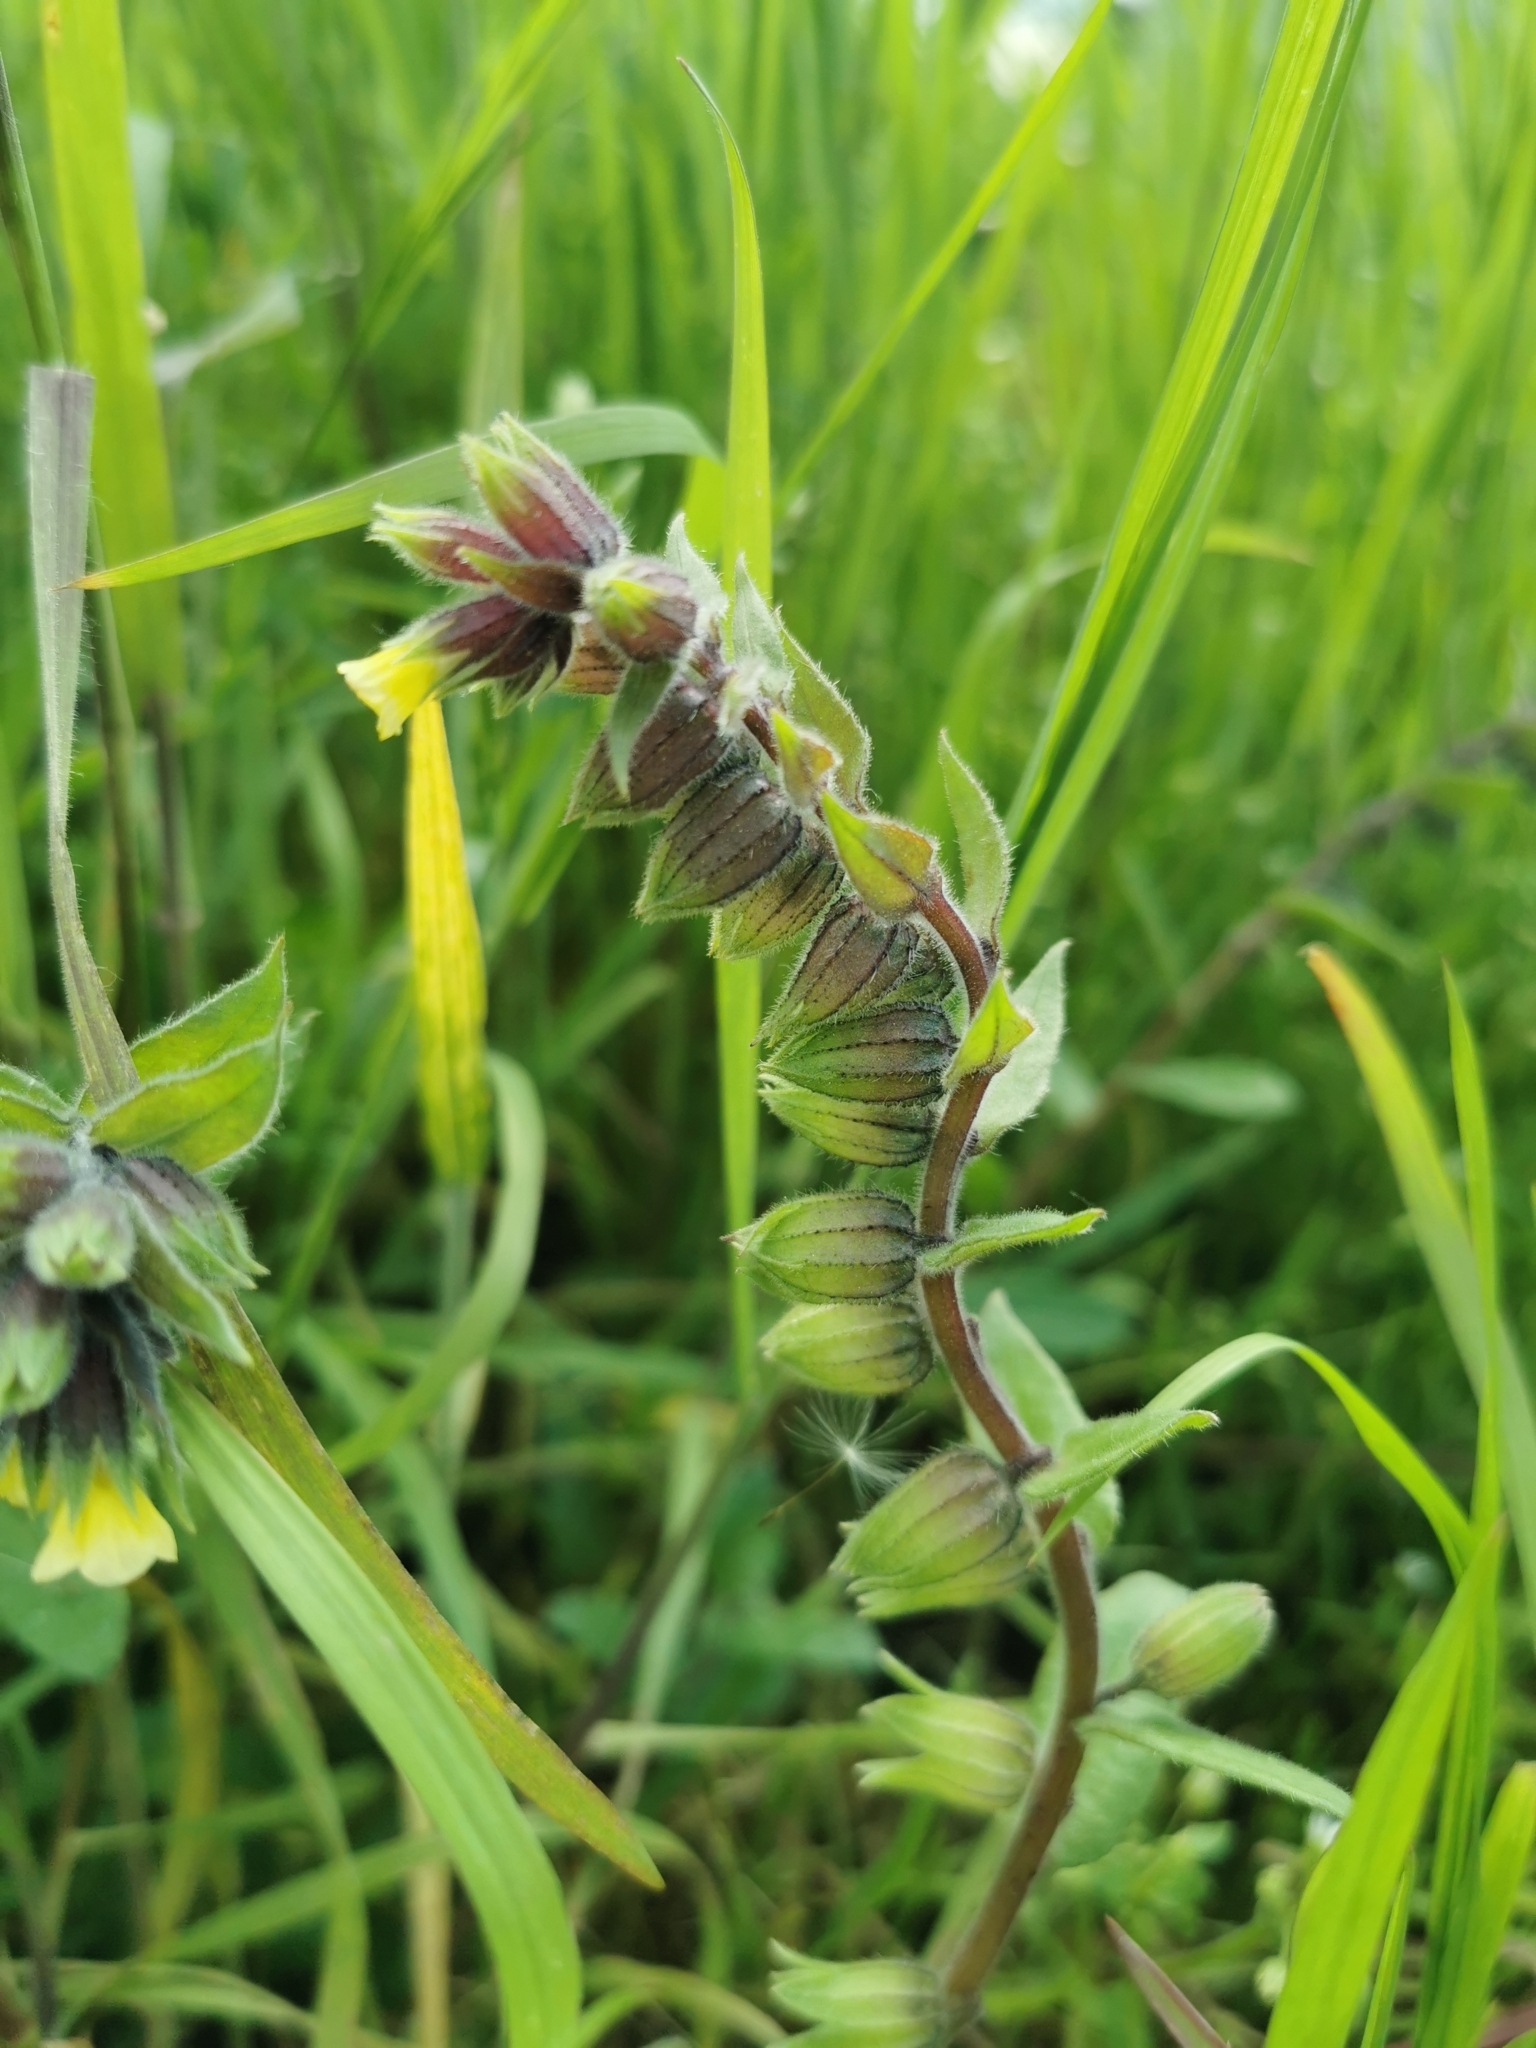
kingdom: Plantae
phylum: Tracheophyta
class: Magnoliopsida
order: Boraginales
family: Boraginaceae
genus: Nonea
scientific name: Nonea lutea
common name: Yellow nonea
